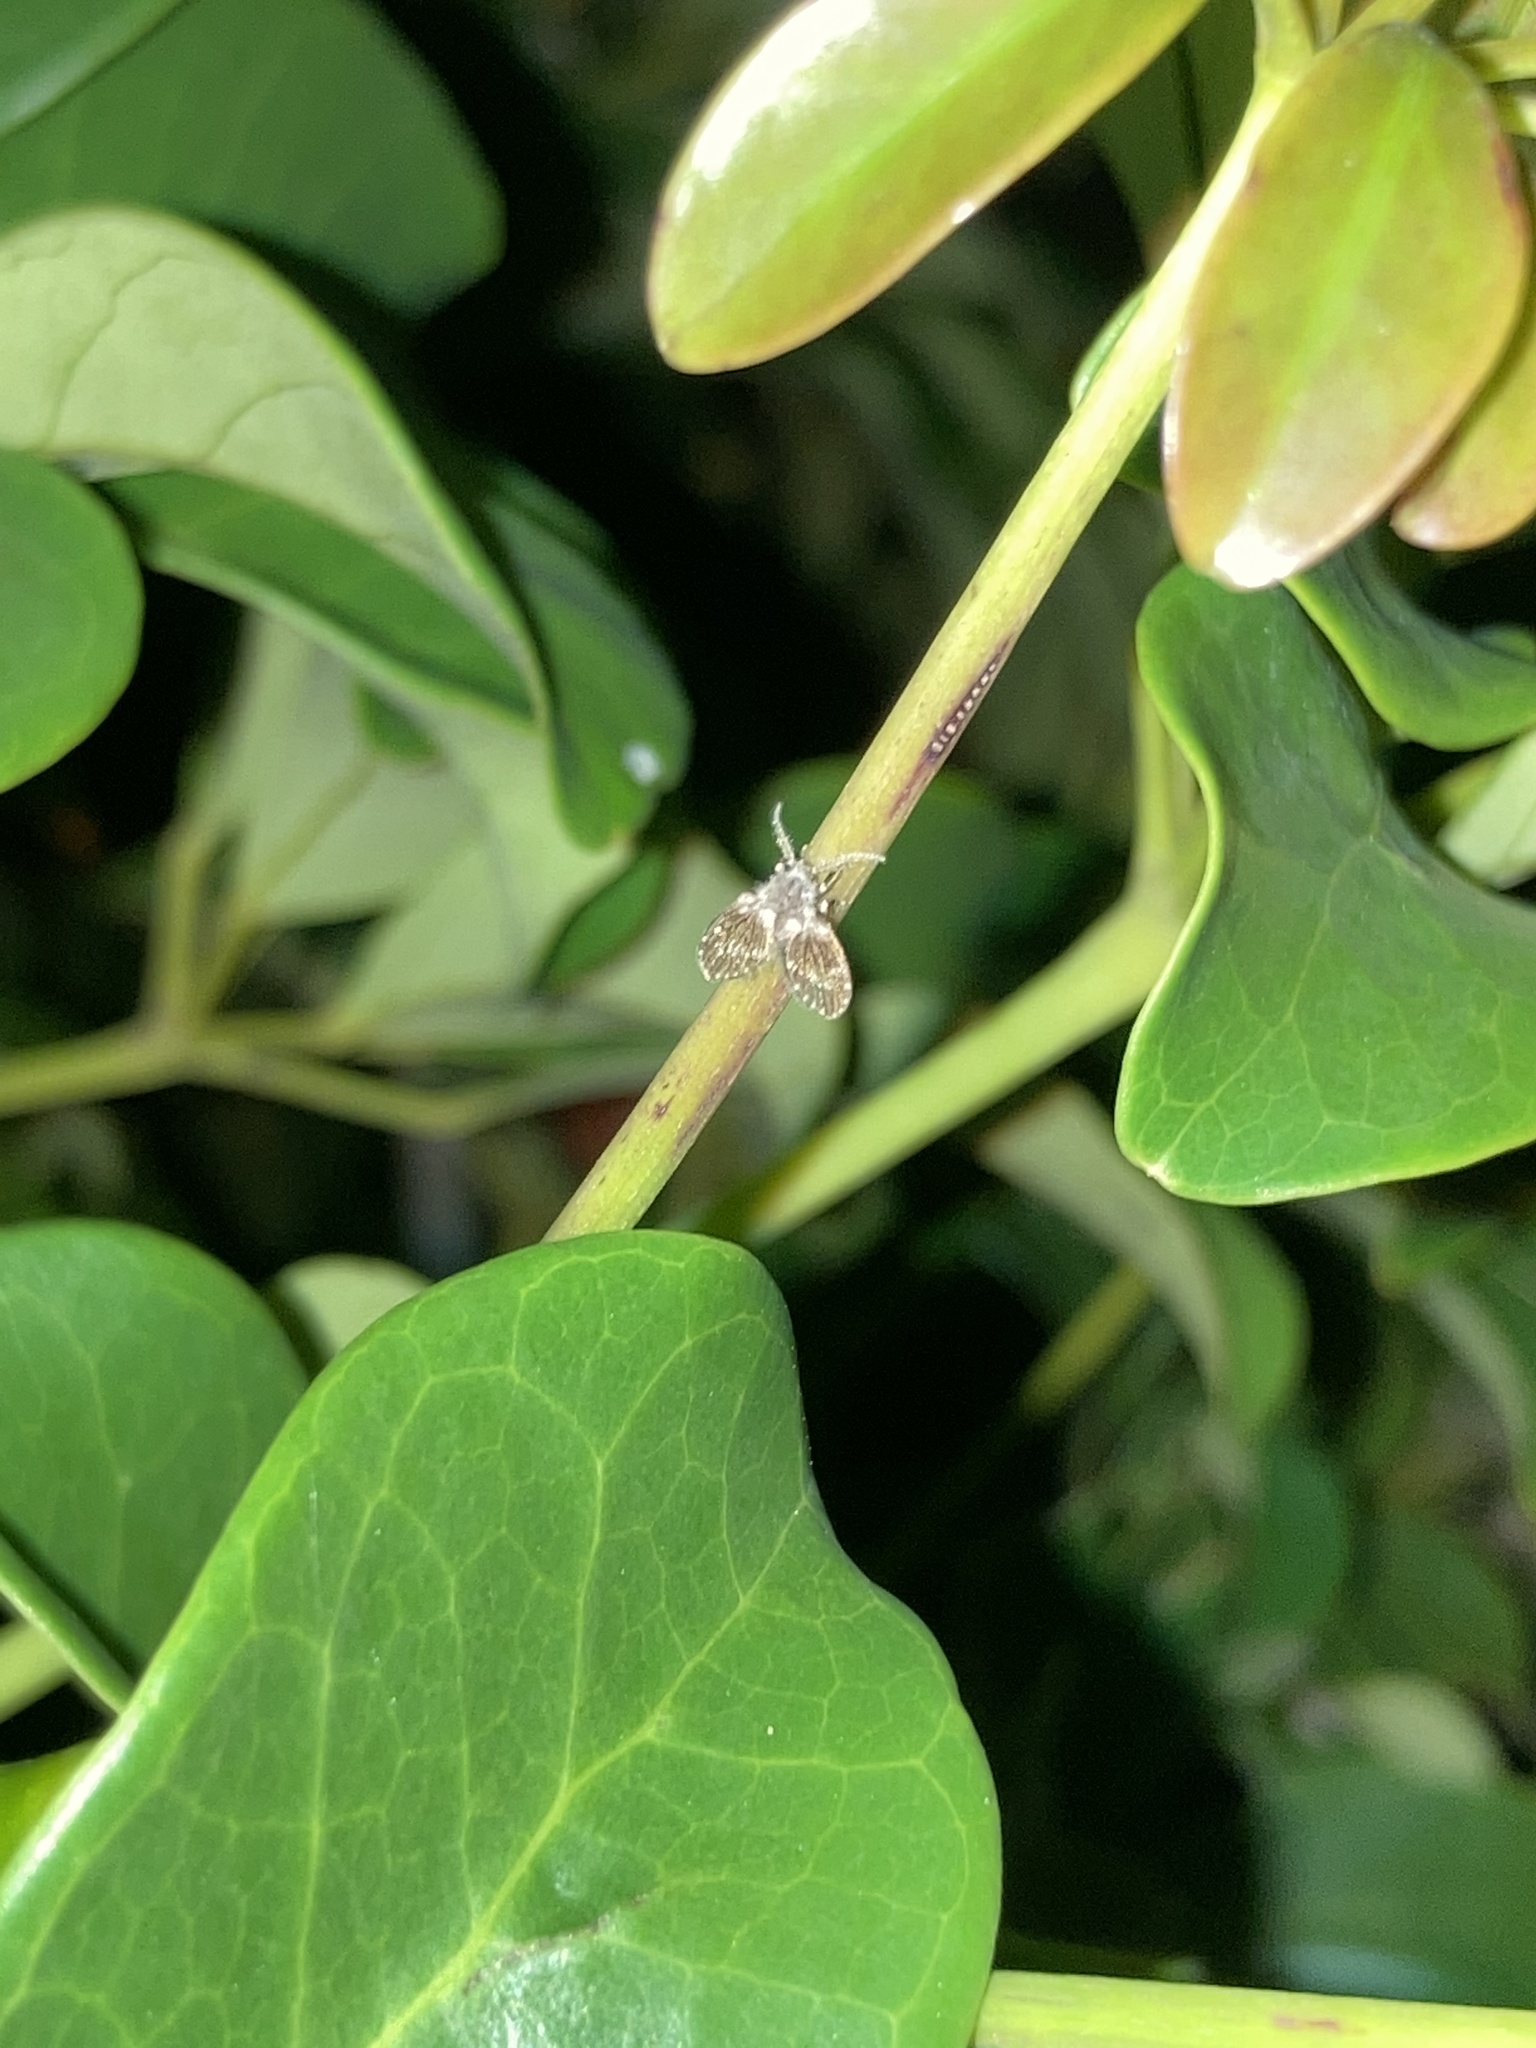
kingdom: Animalia
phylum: Arthropoda
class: Insecta
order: Diptera
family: Psychodidae
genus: Clogmia
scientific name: Clogmia albipunctatus
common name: White-spotted moth fly
